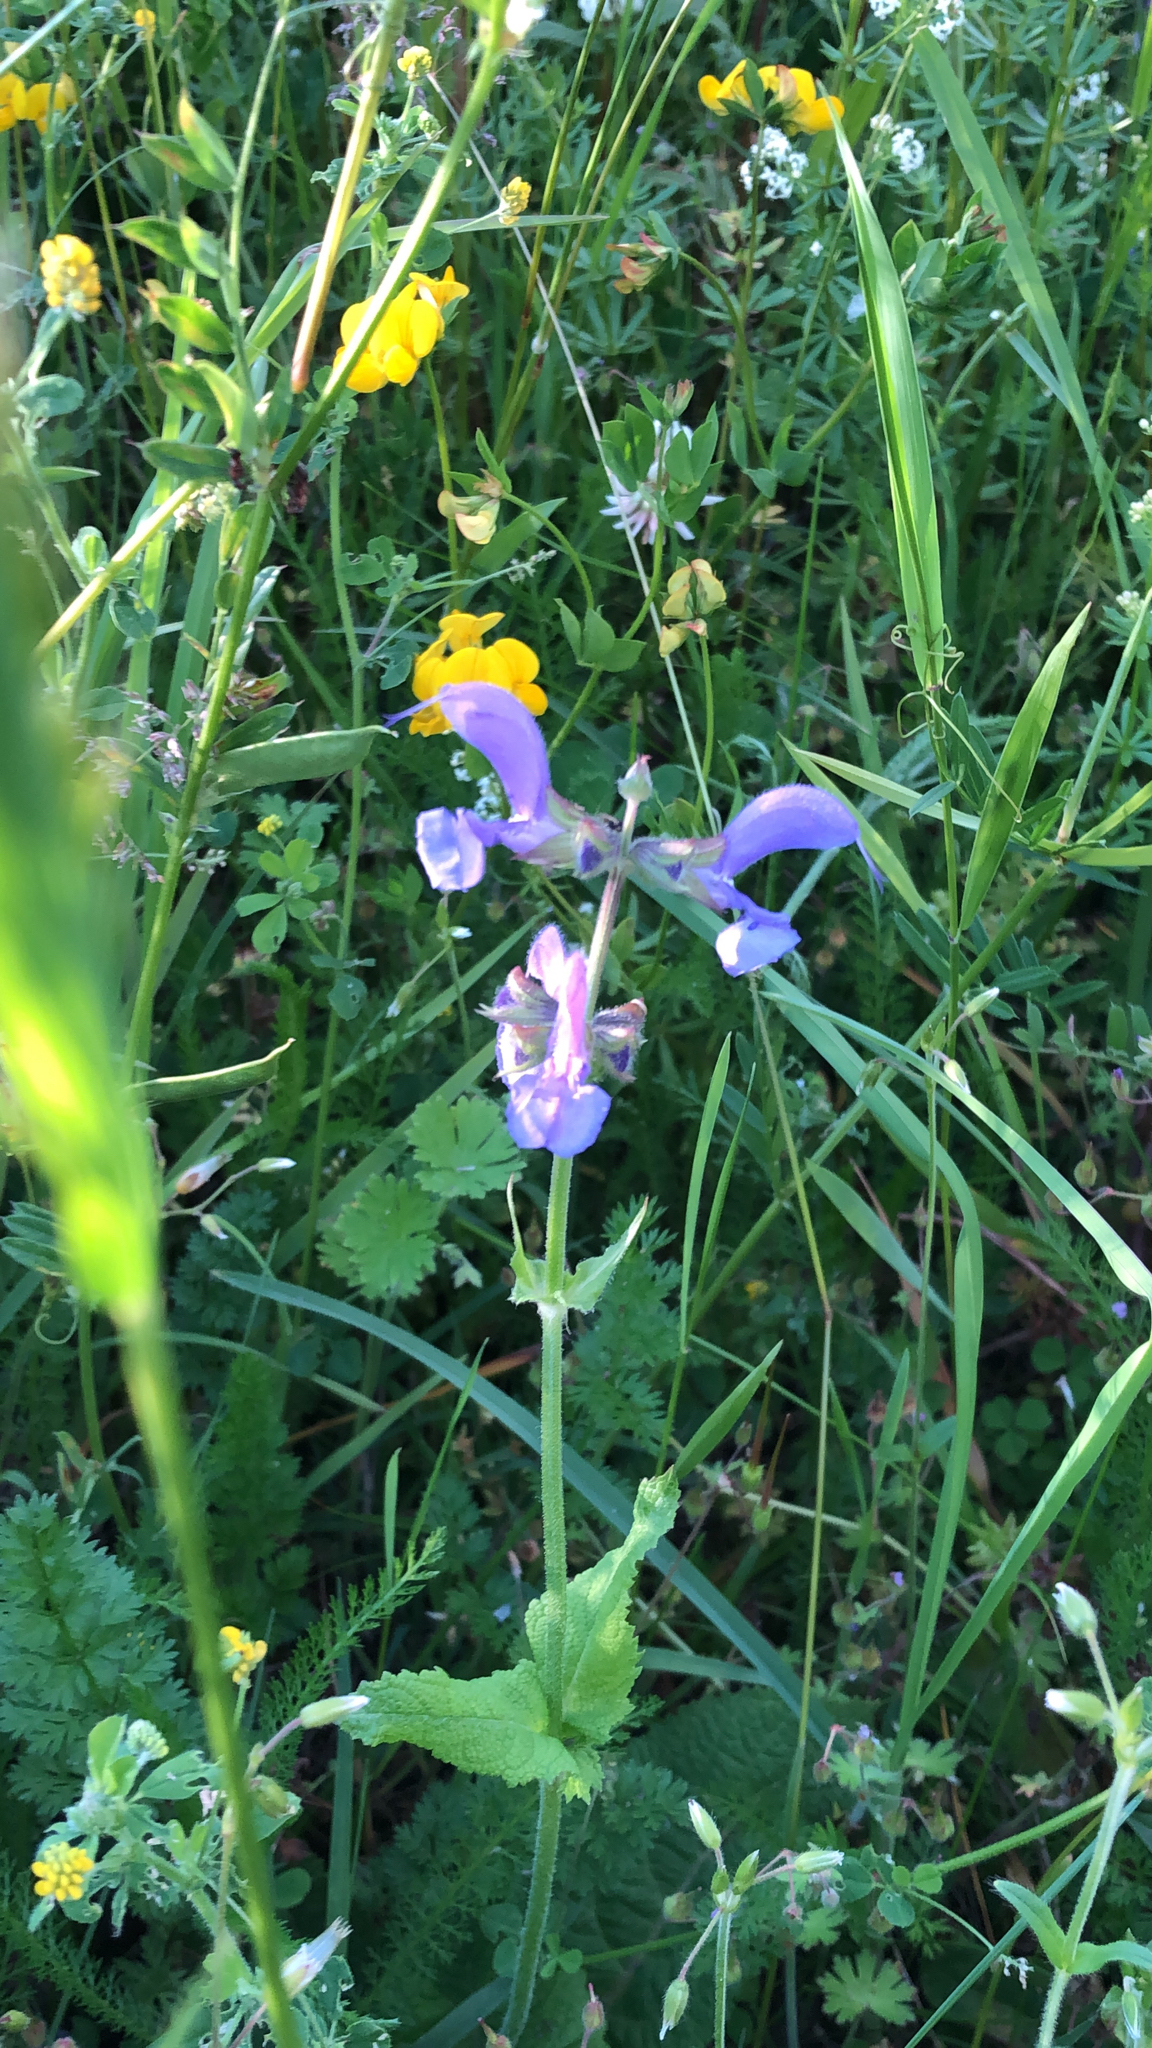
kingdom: Plantae
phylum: Tracheophyta
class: Magnoliopsida
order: Lamiales
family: Lamiaceae
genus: Salvia
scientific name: Salvia pratensis
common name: Meadow sage
